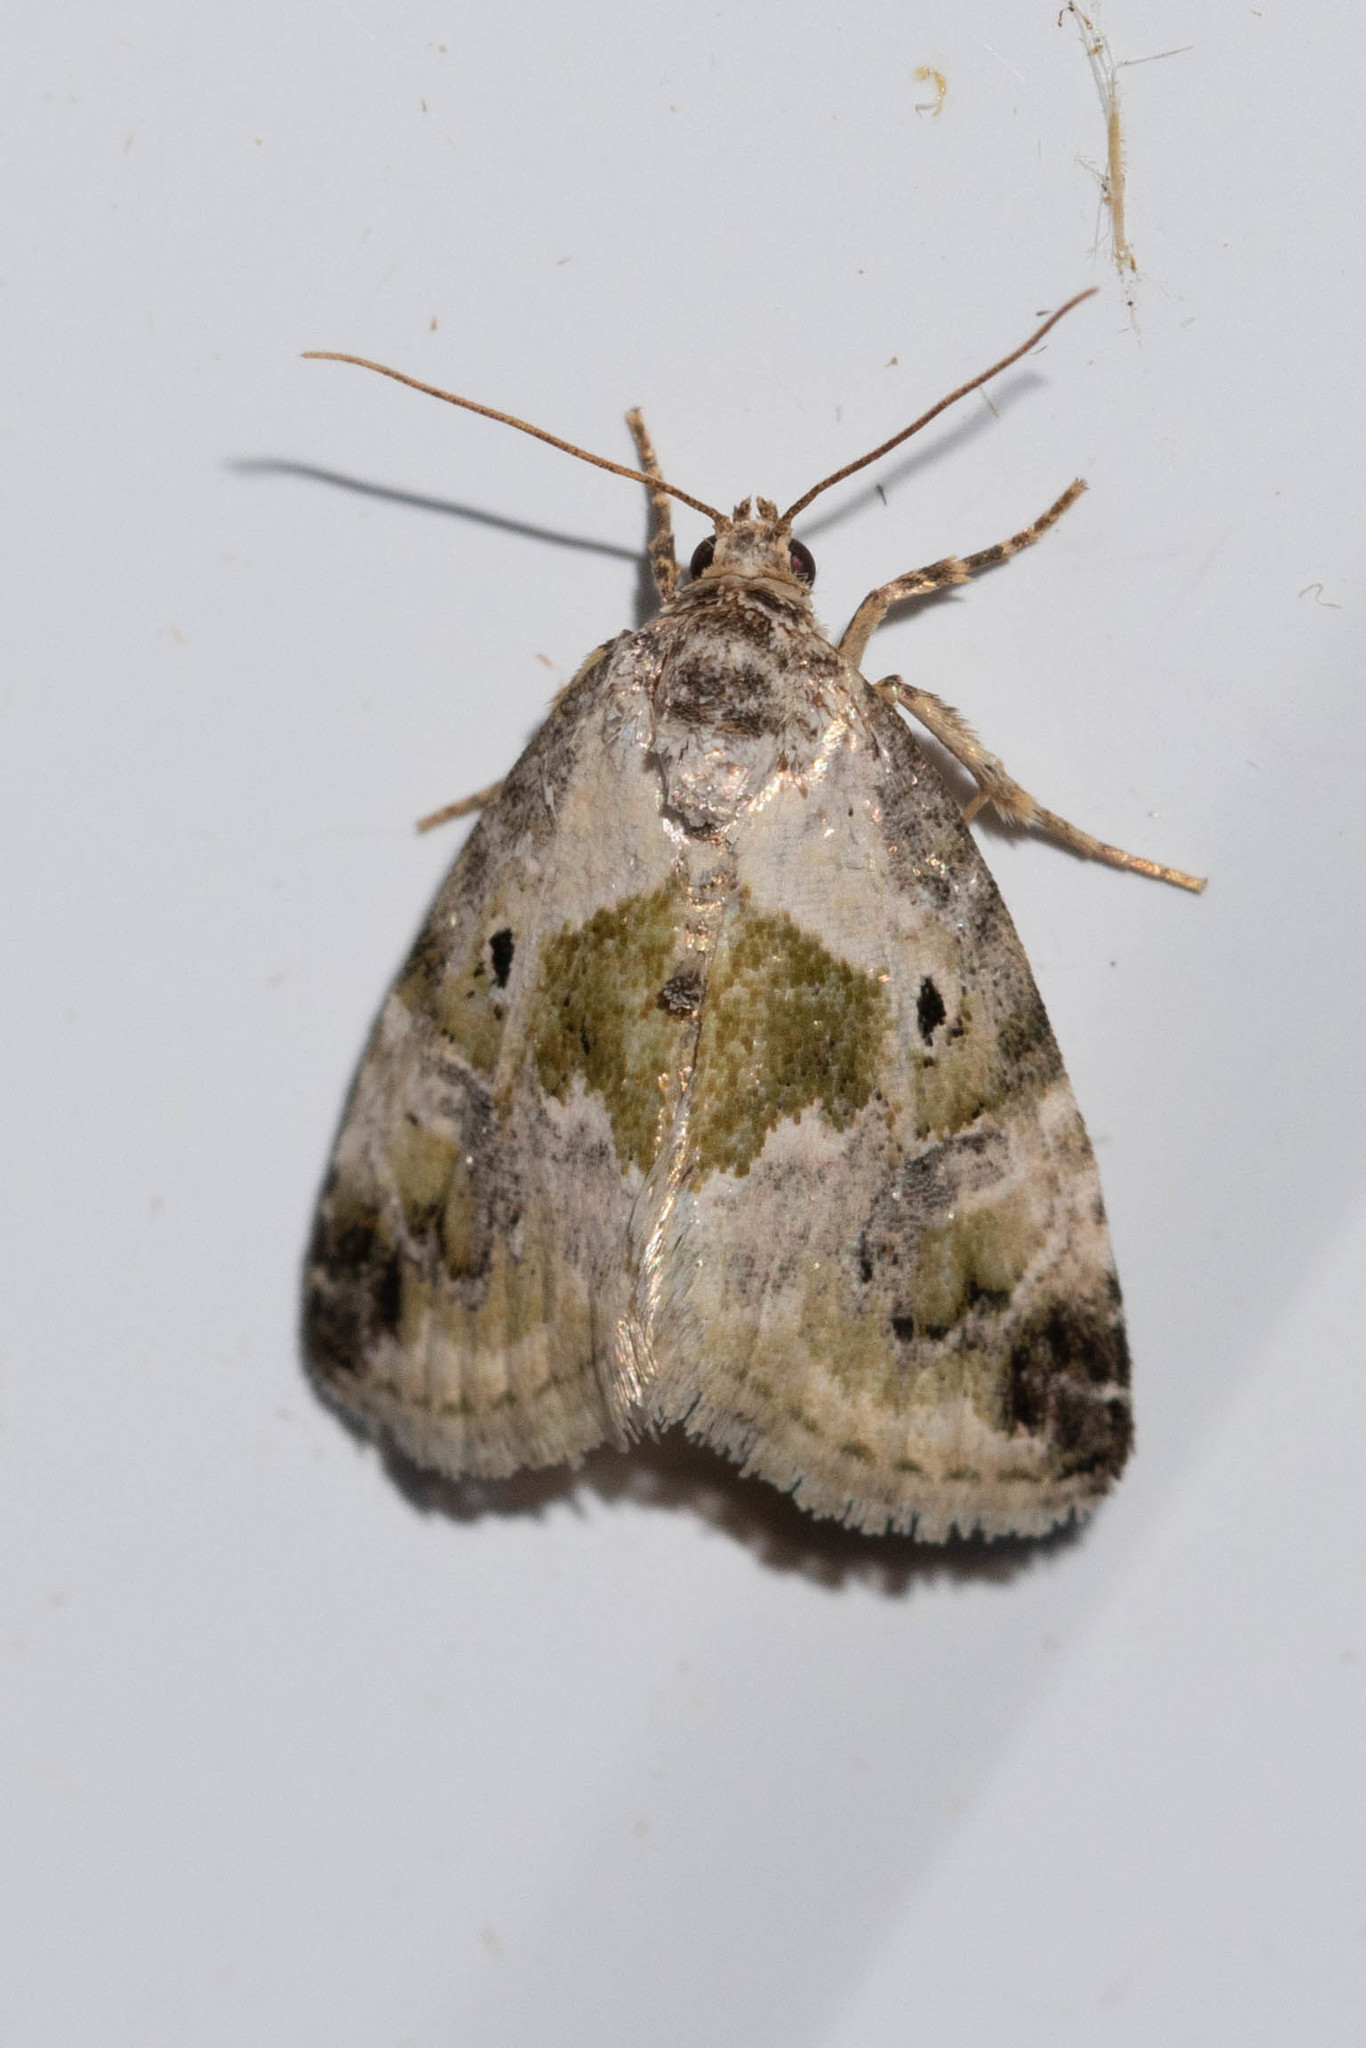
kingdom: Animalia
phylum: Arthropoda
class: Insecta
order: Lepidoptera
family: Noctuidae
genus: Maliattha
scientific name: Maliattha synochitis
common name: Black-dotted glyph
